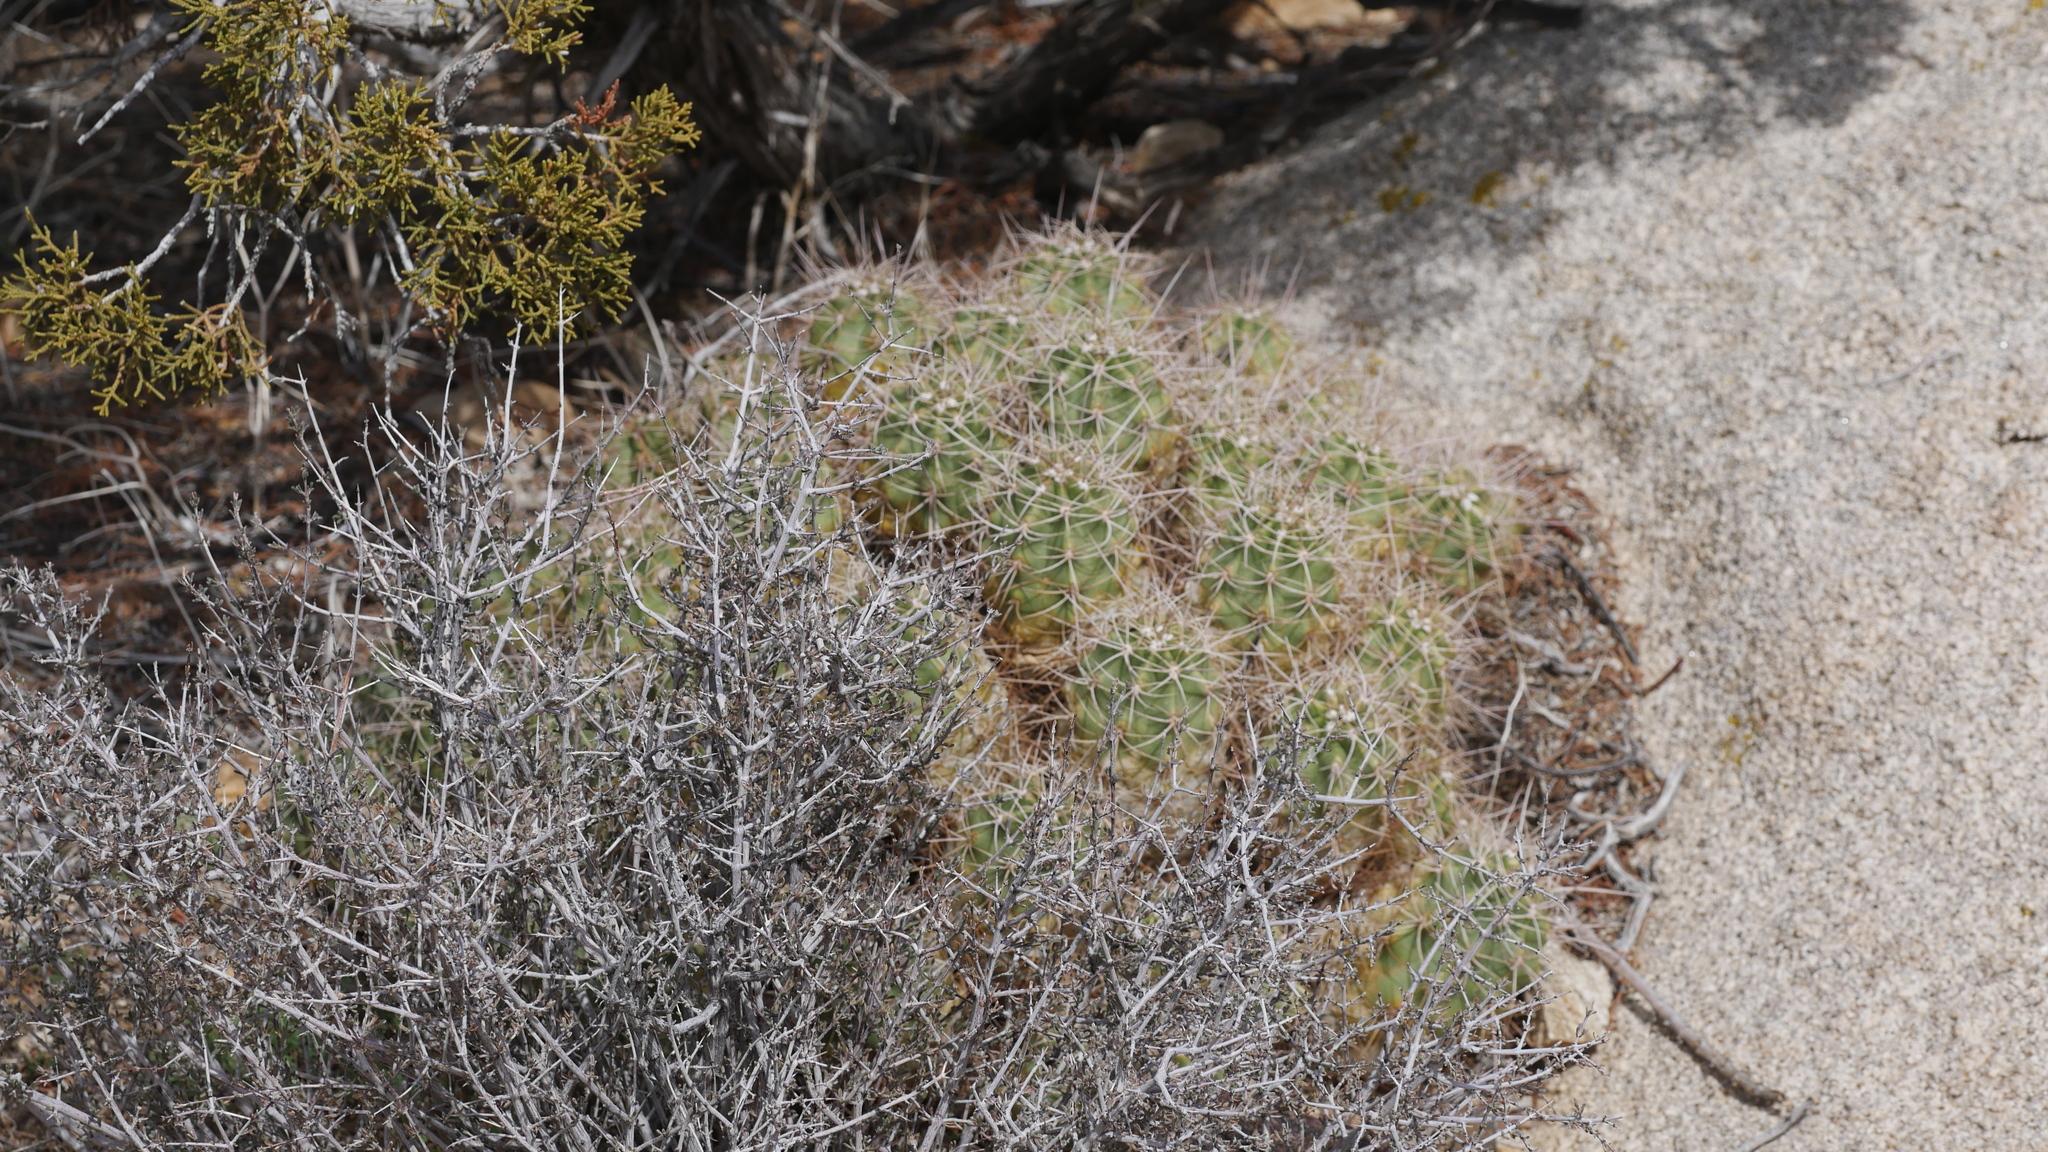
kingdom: Plantae
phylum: Tracheophyta
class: Magnoliopsida
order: Caryophyllales
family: Cactaceae
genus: Echinocereus
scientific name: Echinocereus triglochidiatus
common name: Claretcup hedgehog
